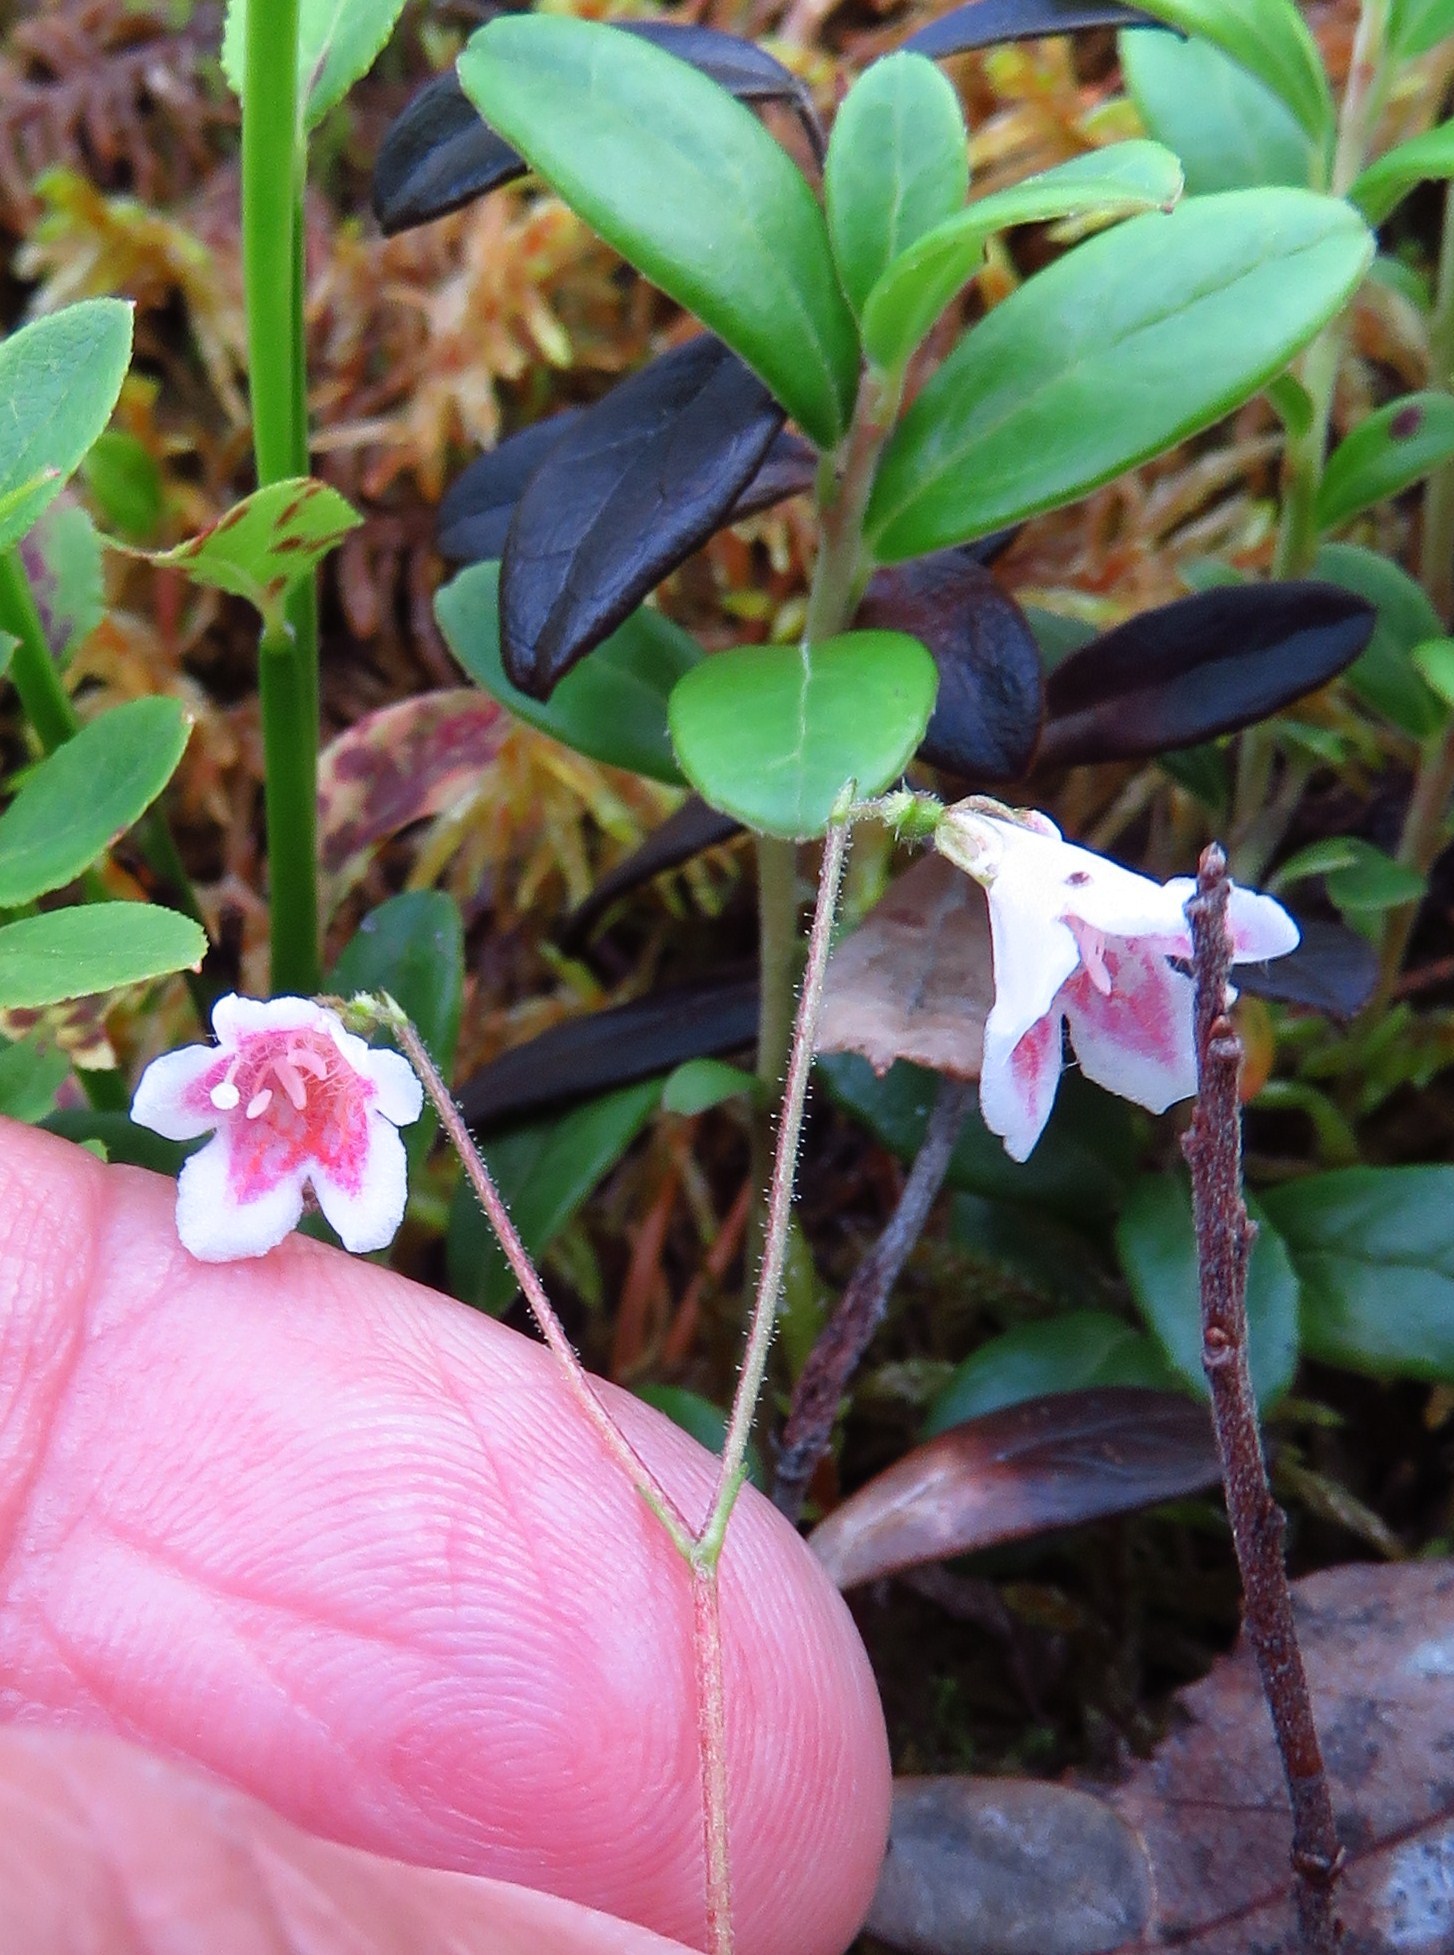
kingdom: Plantae
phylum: Tracheophyta
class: Magnoliopsida
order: Dipsacales
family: Caprifoliaceae
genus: Linnaea
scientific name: Linnaea borealis
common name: Twinflower
